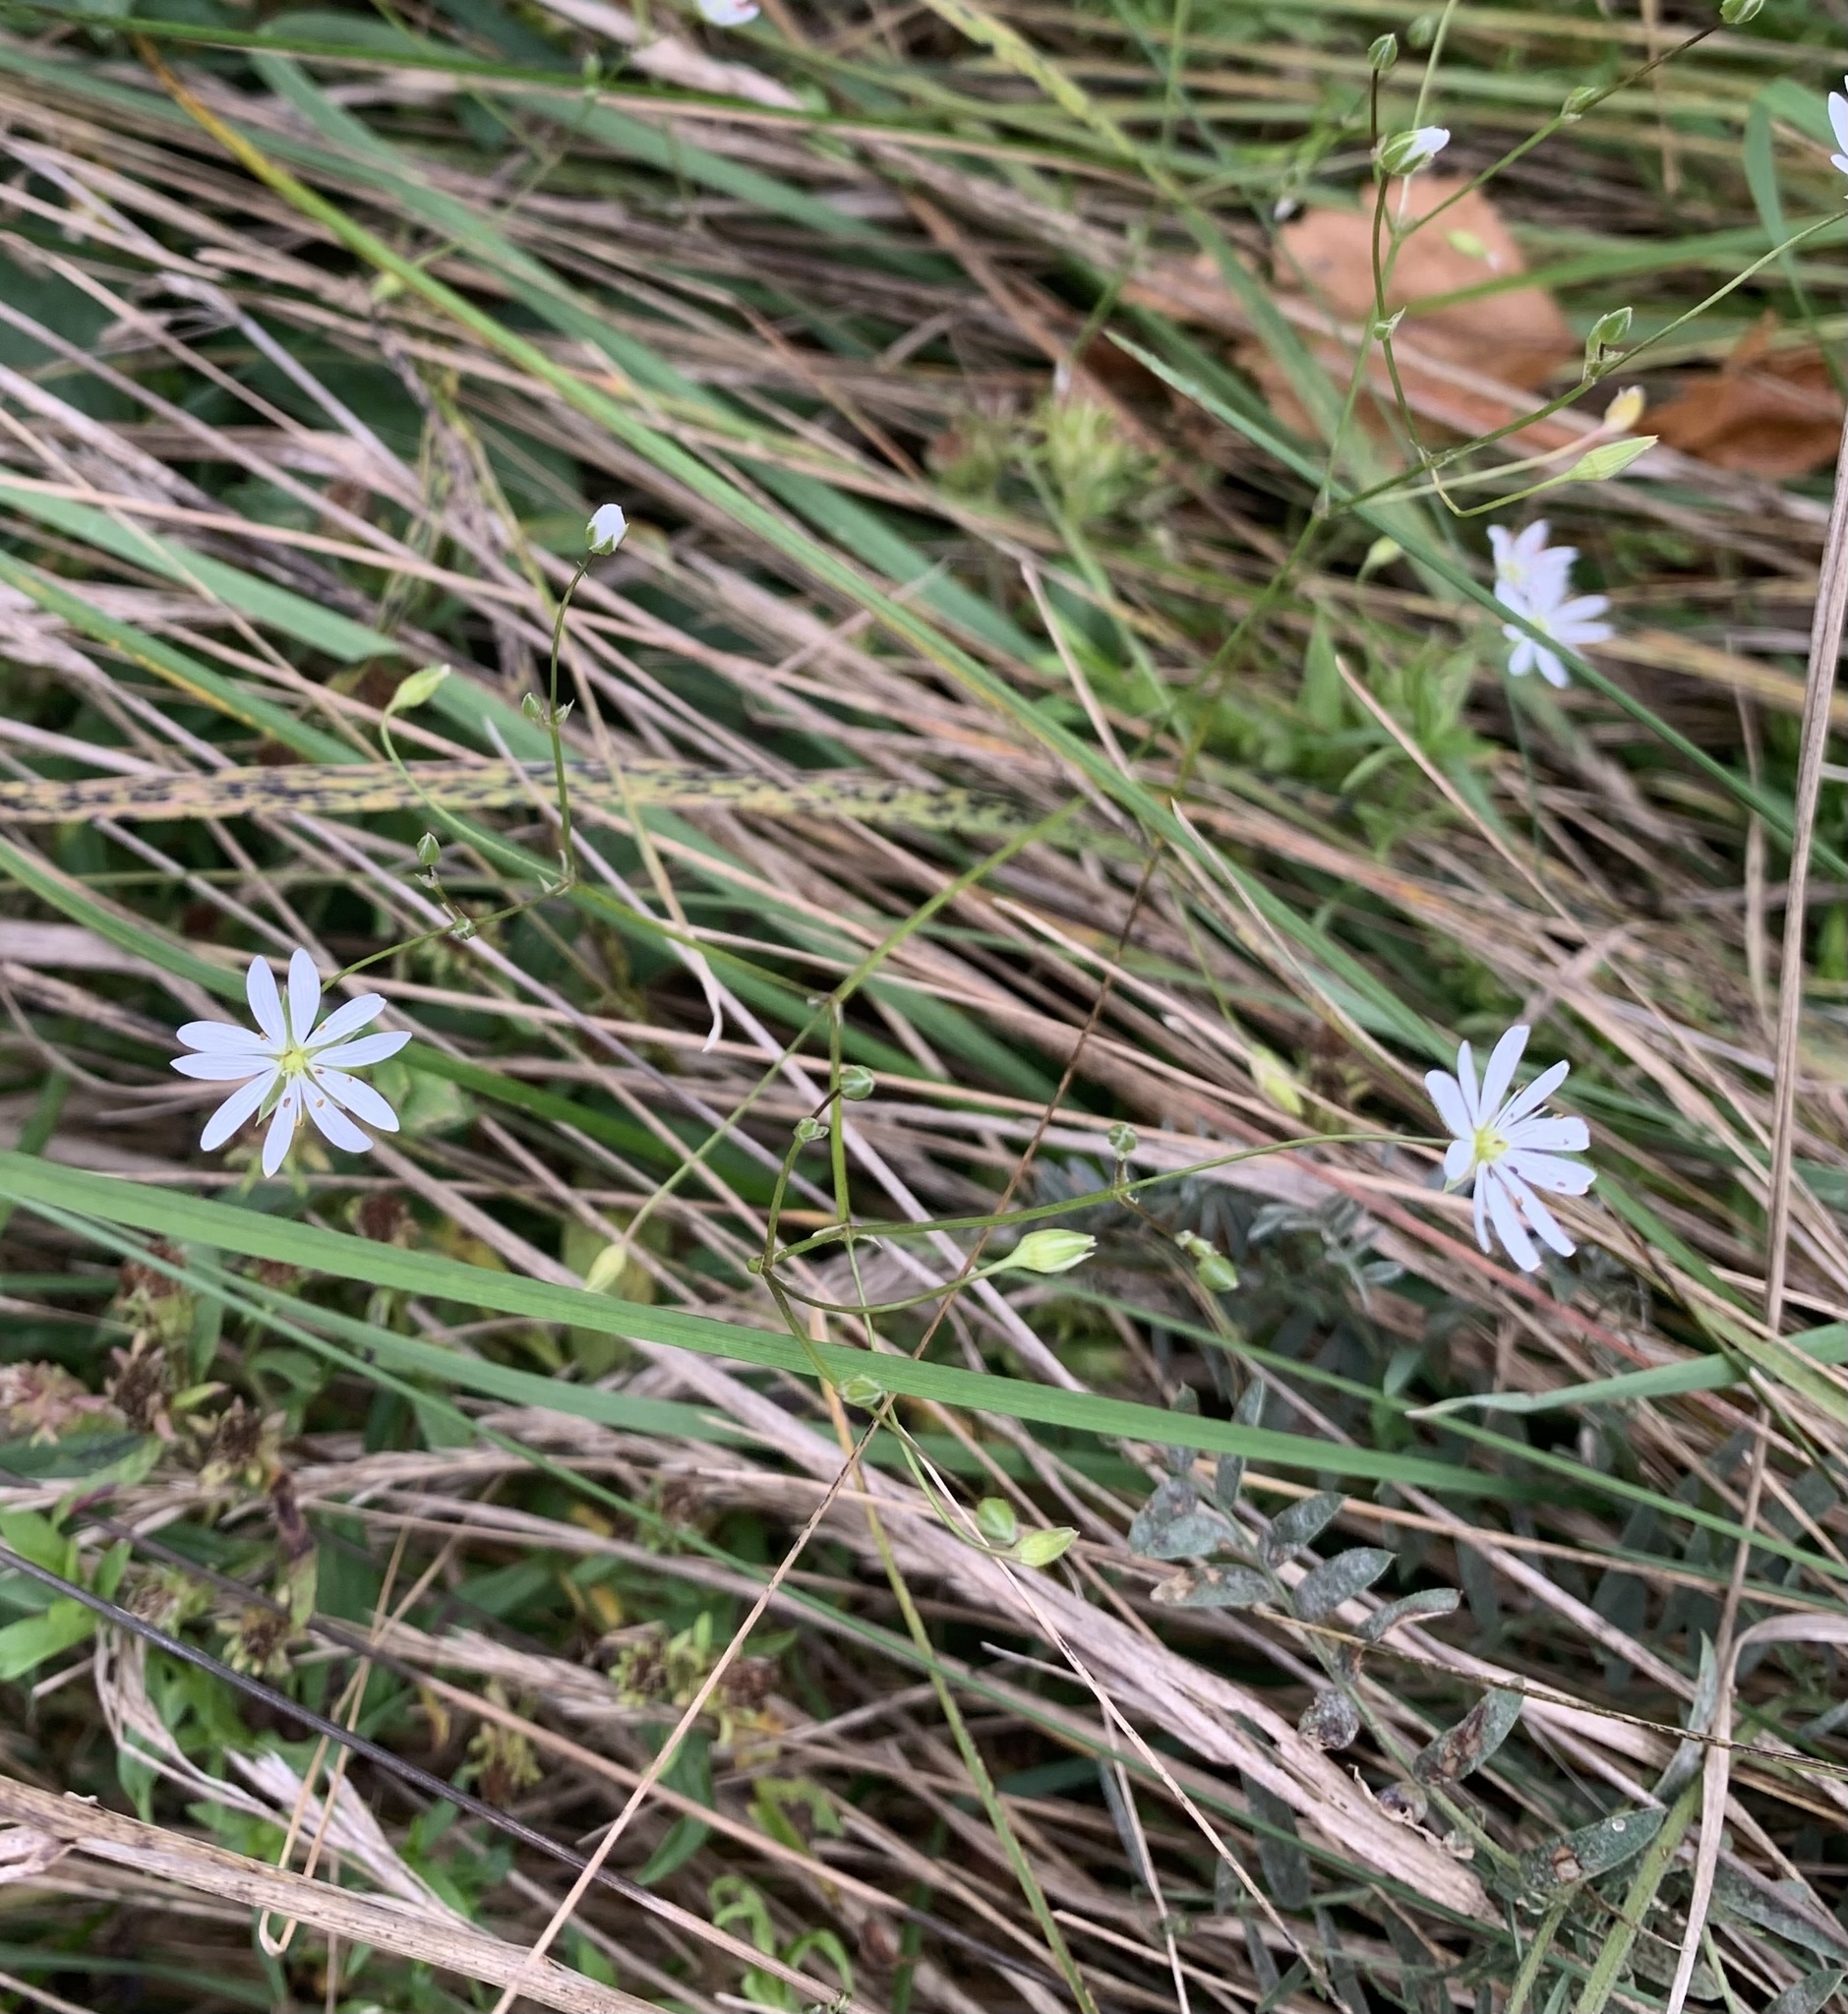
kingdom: Plantae
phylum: Tracheophyta
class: Magnoliopsida
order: Caryophyllales
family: Caryophyllaceae
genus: Stellaria
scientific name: Stellaria graminea
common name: Grass-like starwort
